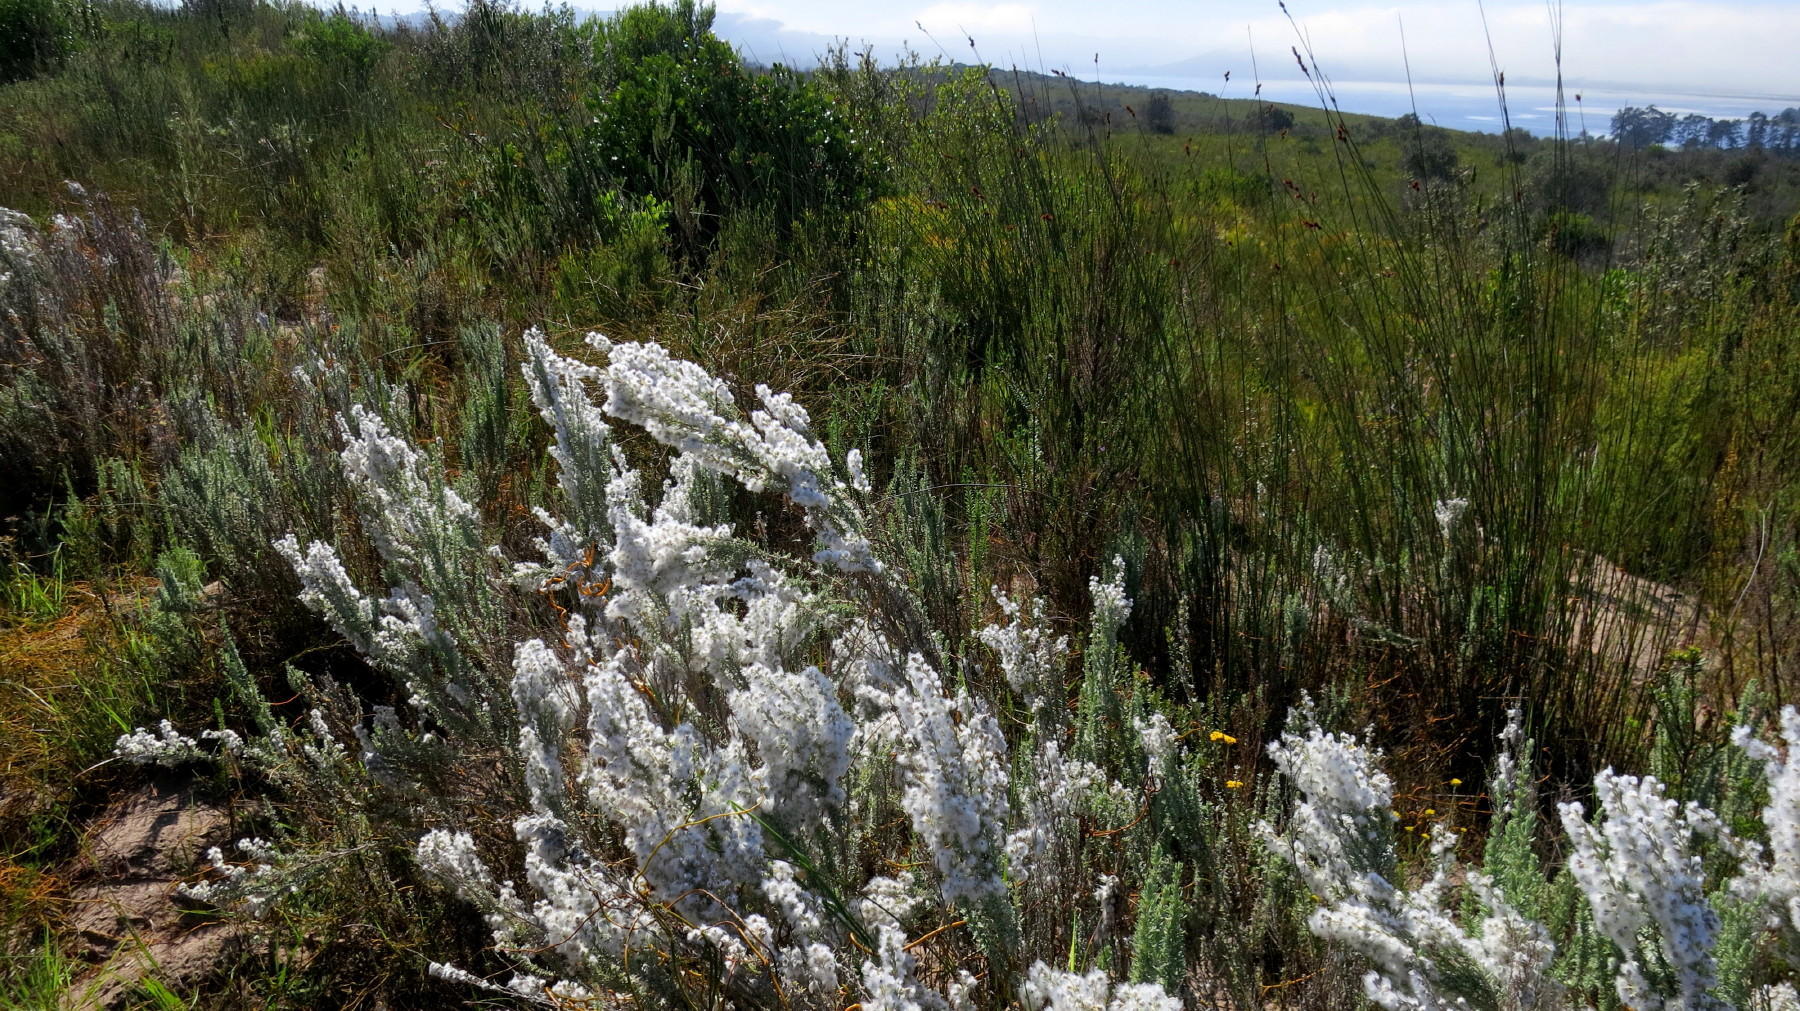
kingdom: Plantae
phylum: Tracheophyta
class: Magnoliopsida
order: Asterales
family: Asteraceae
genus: Eriocephalus
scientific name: Eriocephalus racemosus
